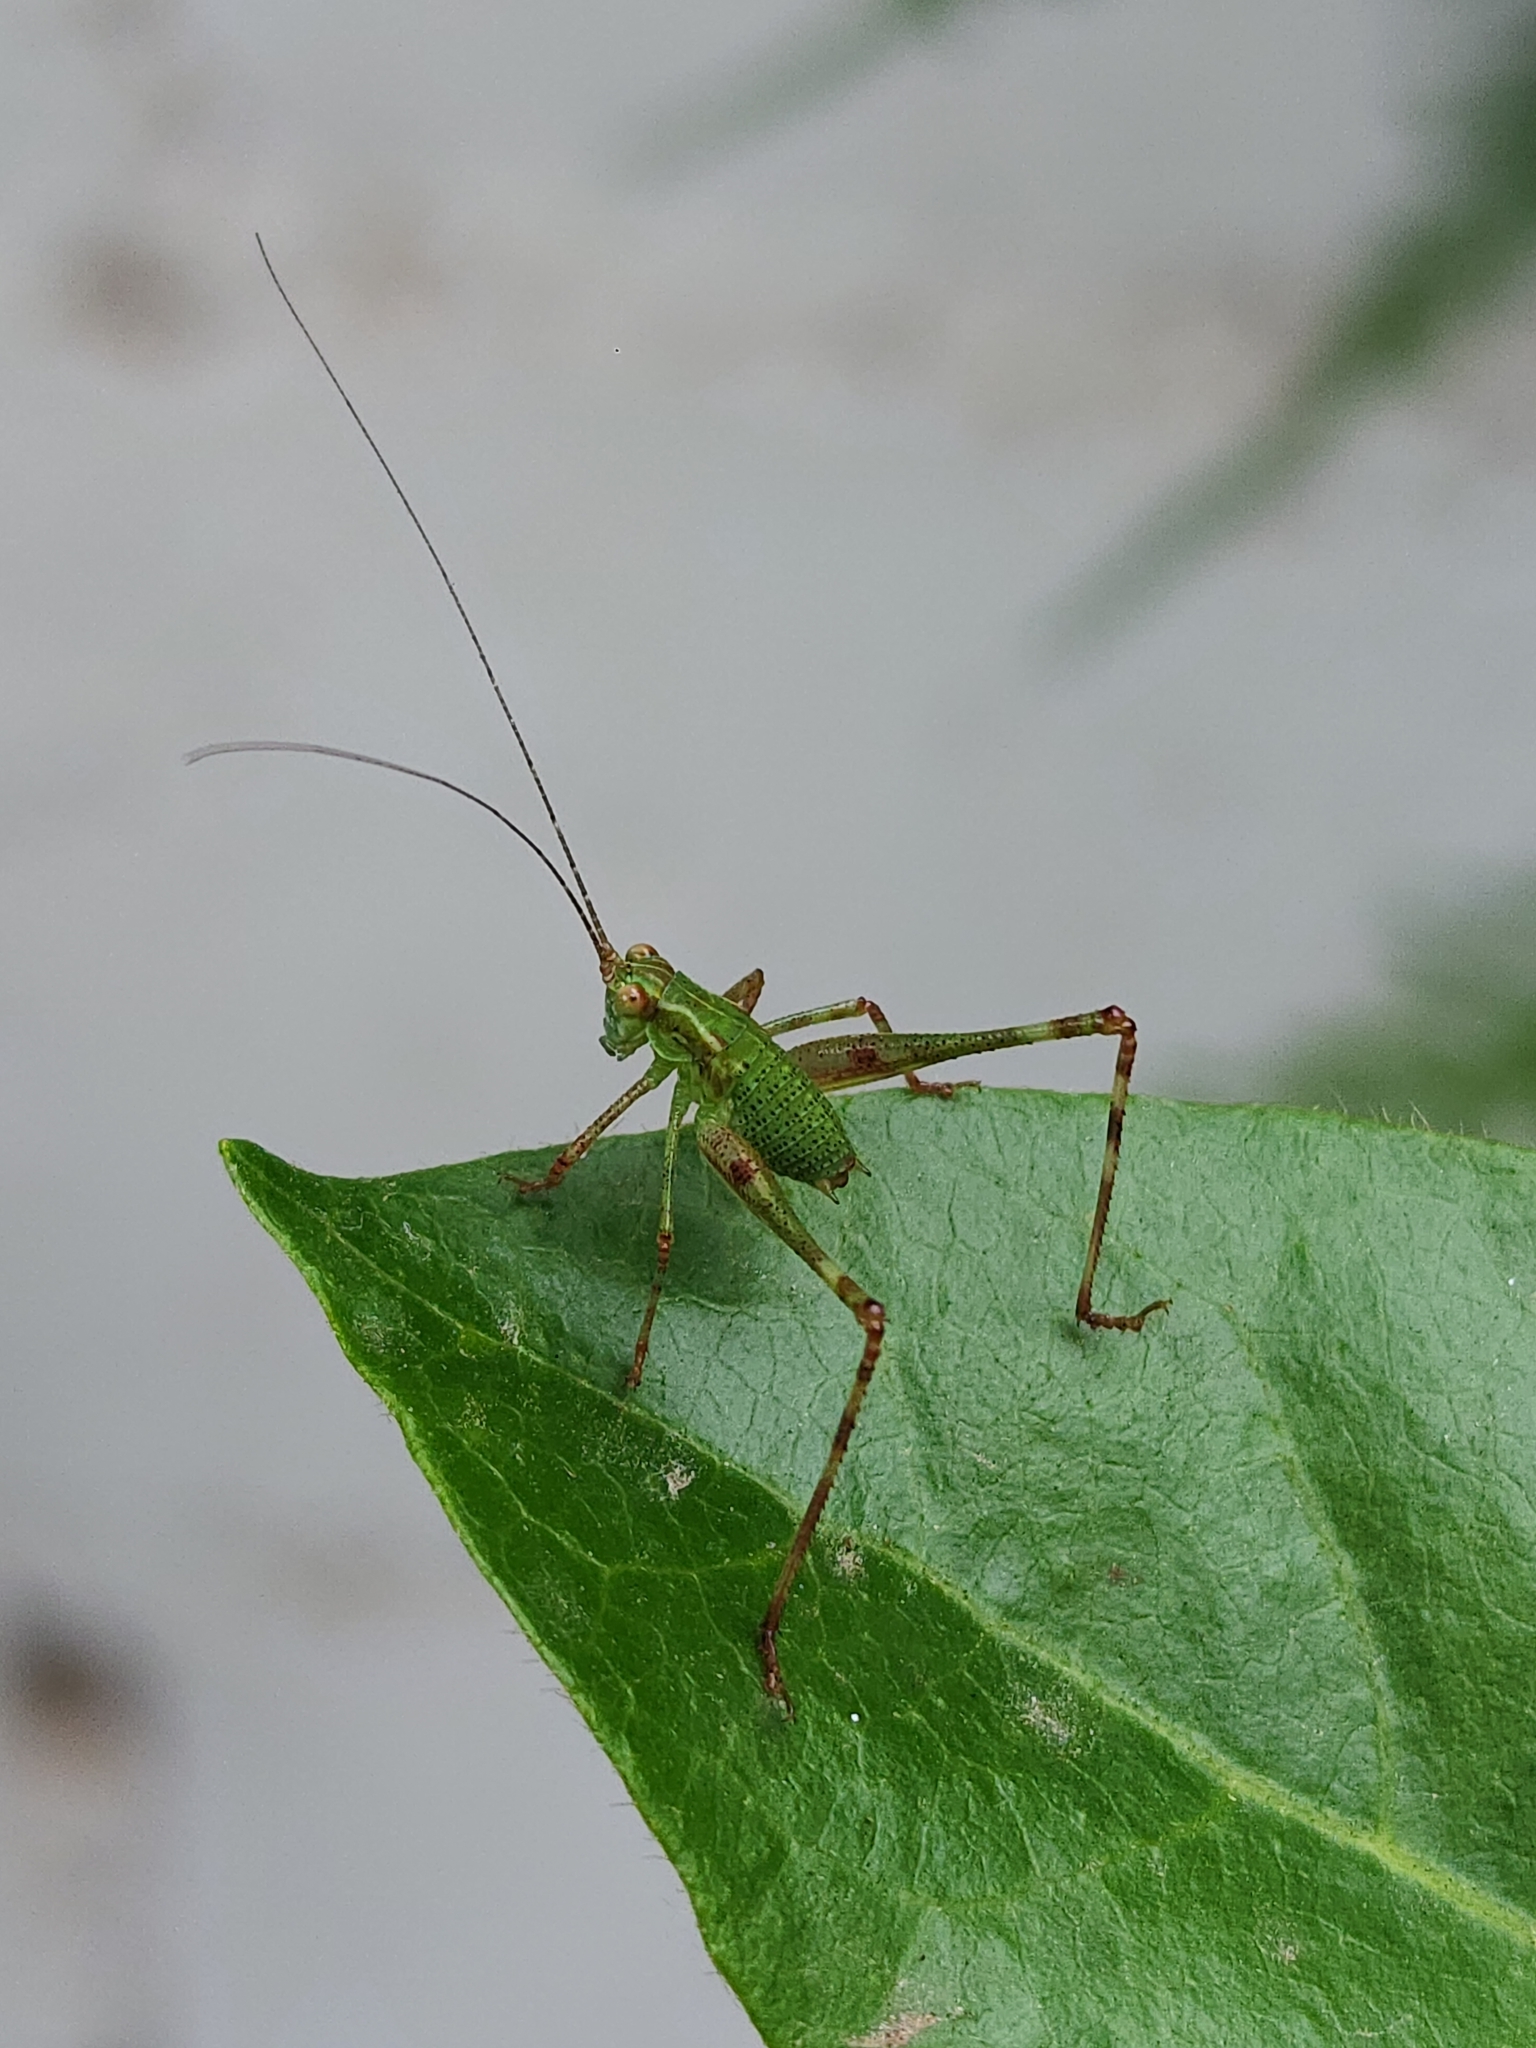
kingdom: Animalia
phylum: Arthropoda
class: Insecta
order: Orthoptera
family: Tettigoniidae
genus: Ligocatinus
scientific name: Ligocatinus spinatus
